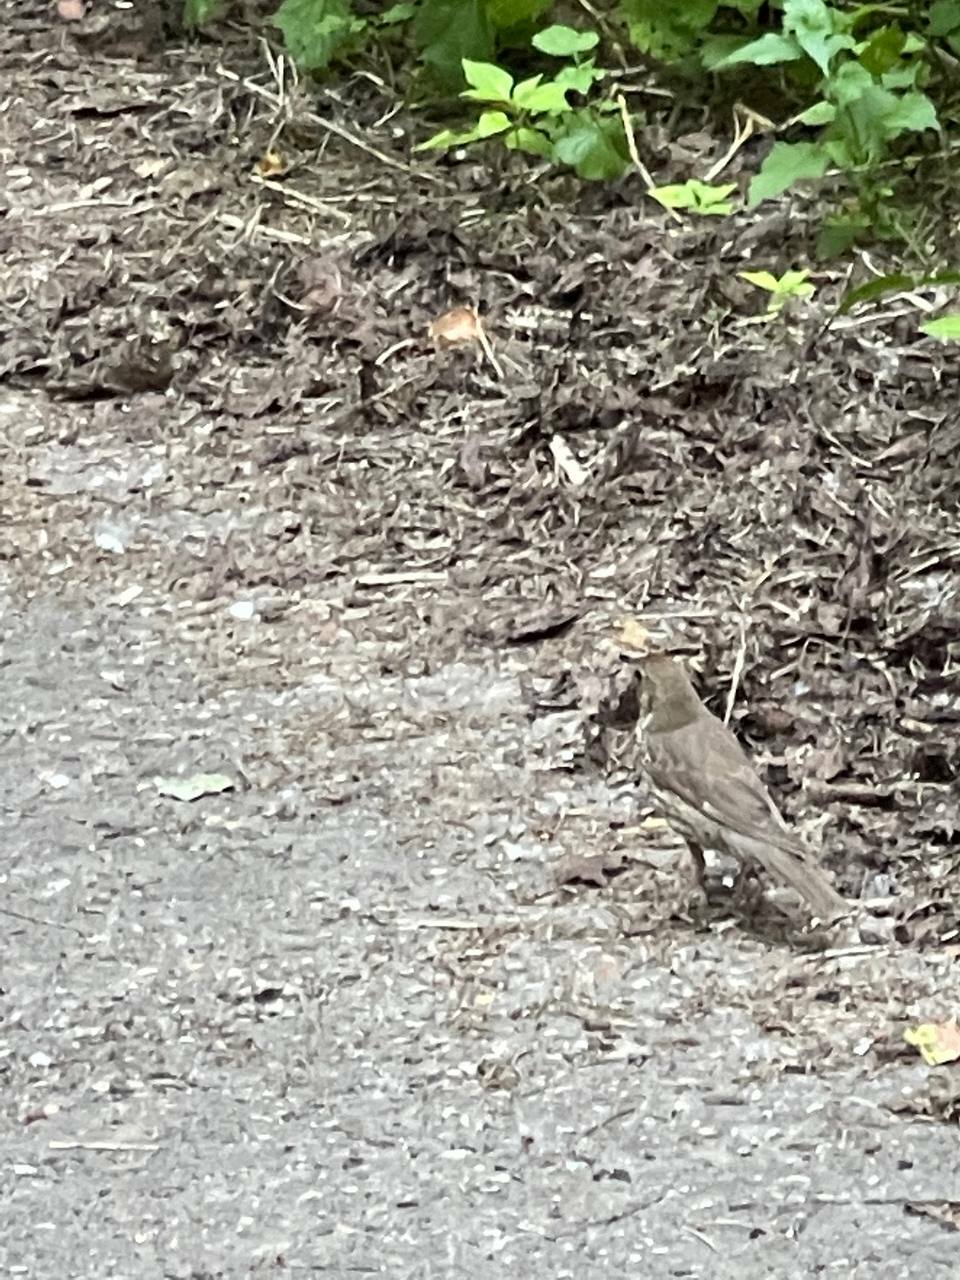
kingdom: Animalia
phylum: Chordata
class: Aves
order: Passeriformes
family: Turdidae
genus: Turdus
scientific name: Turdus philomelos
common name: Song thrush
